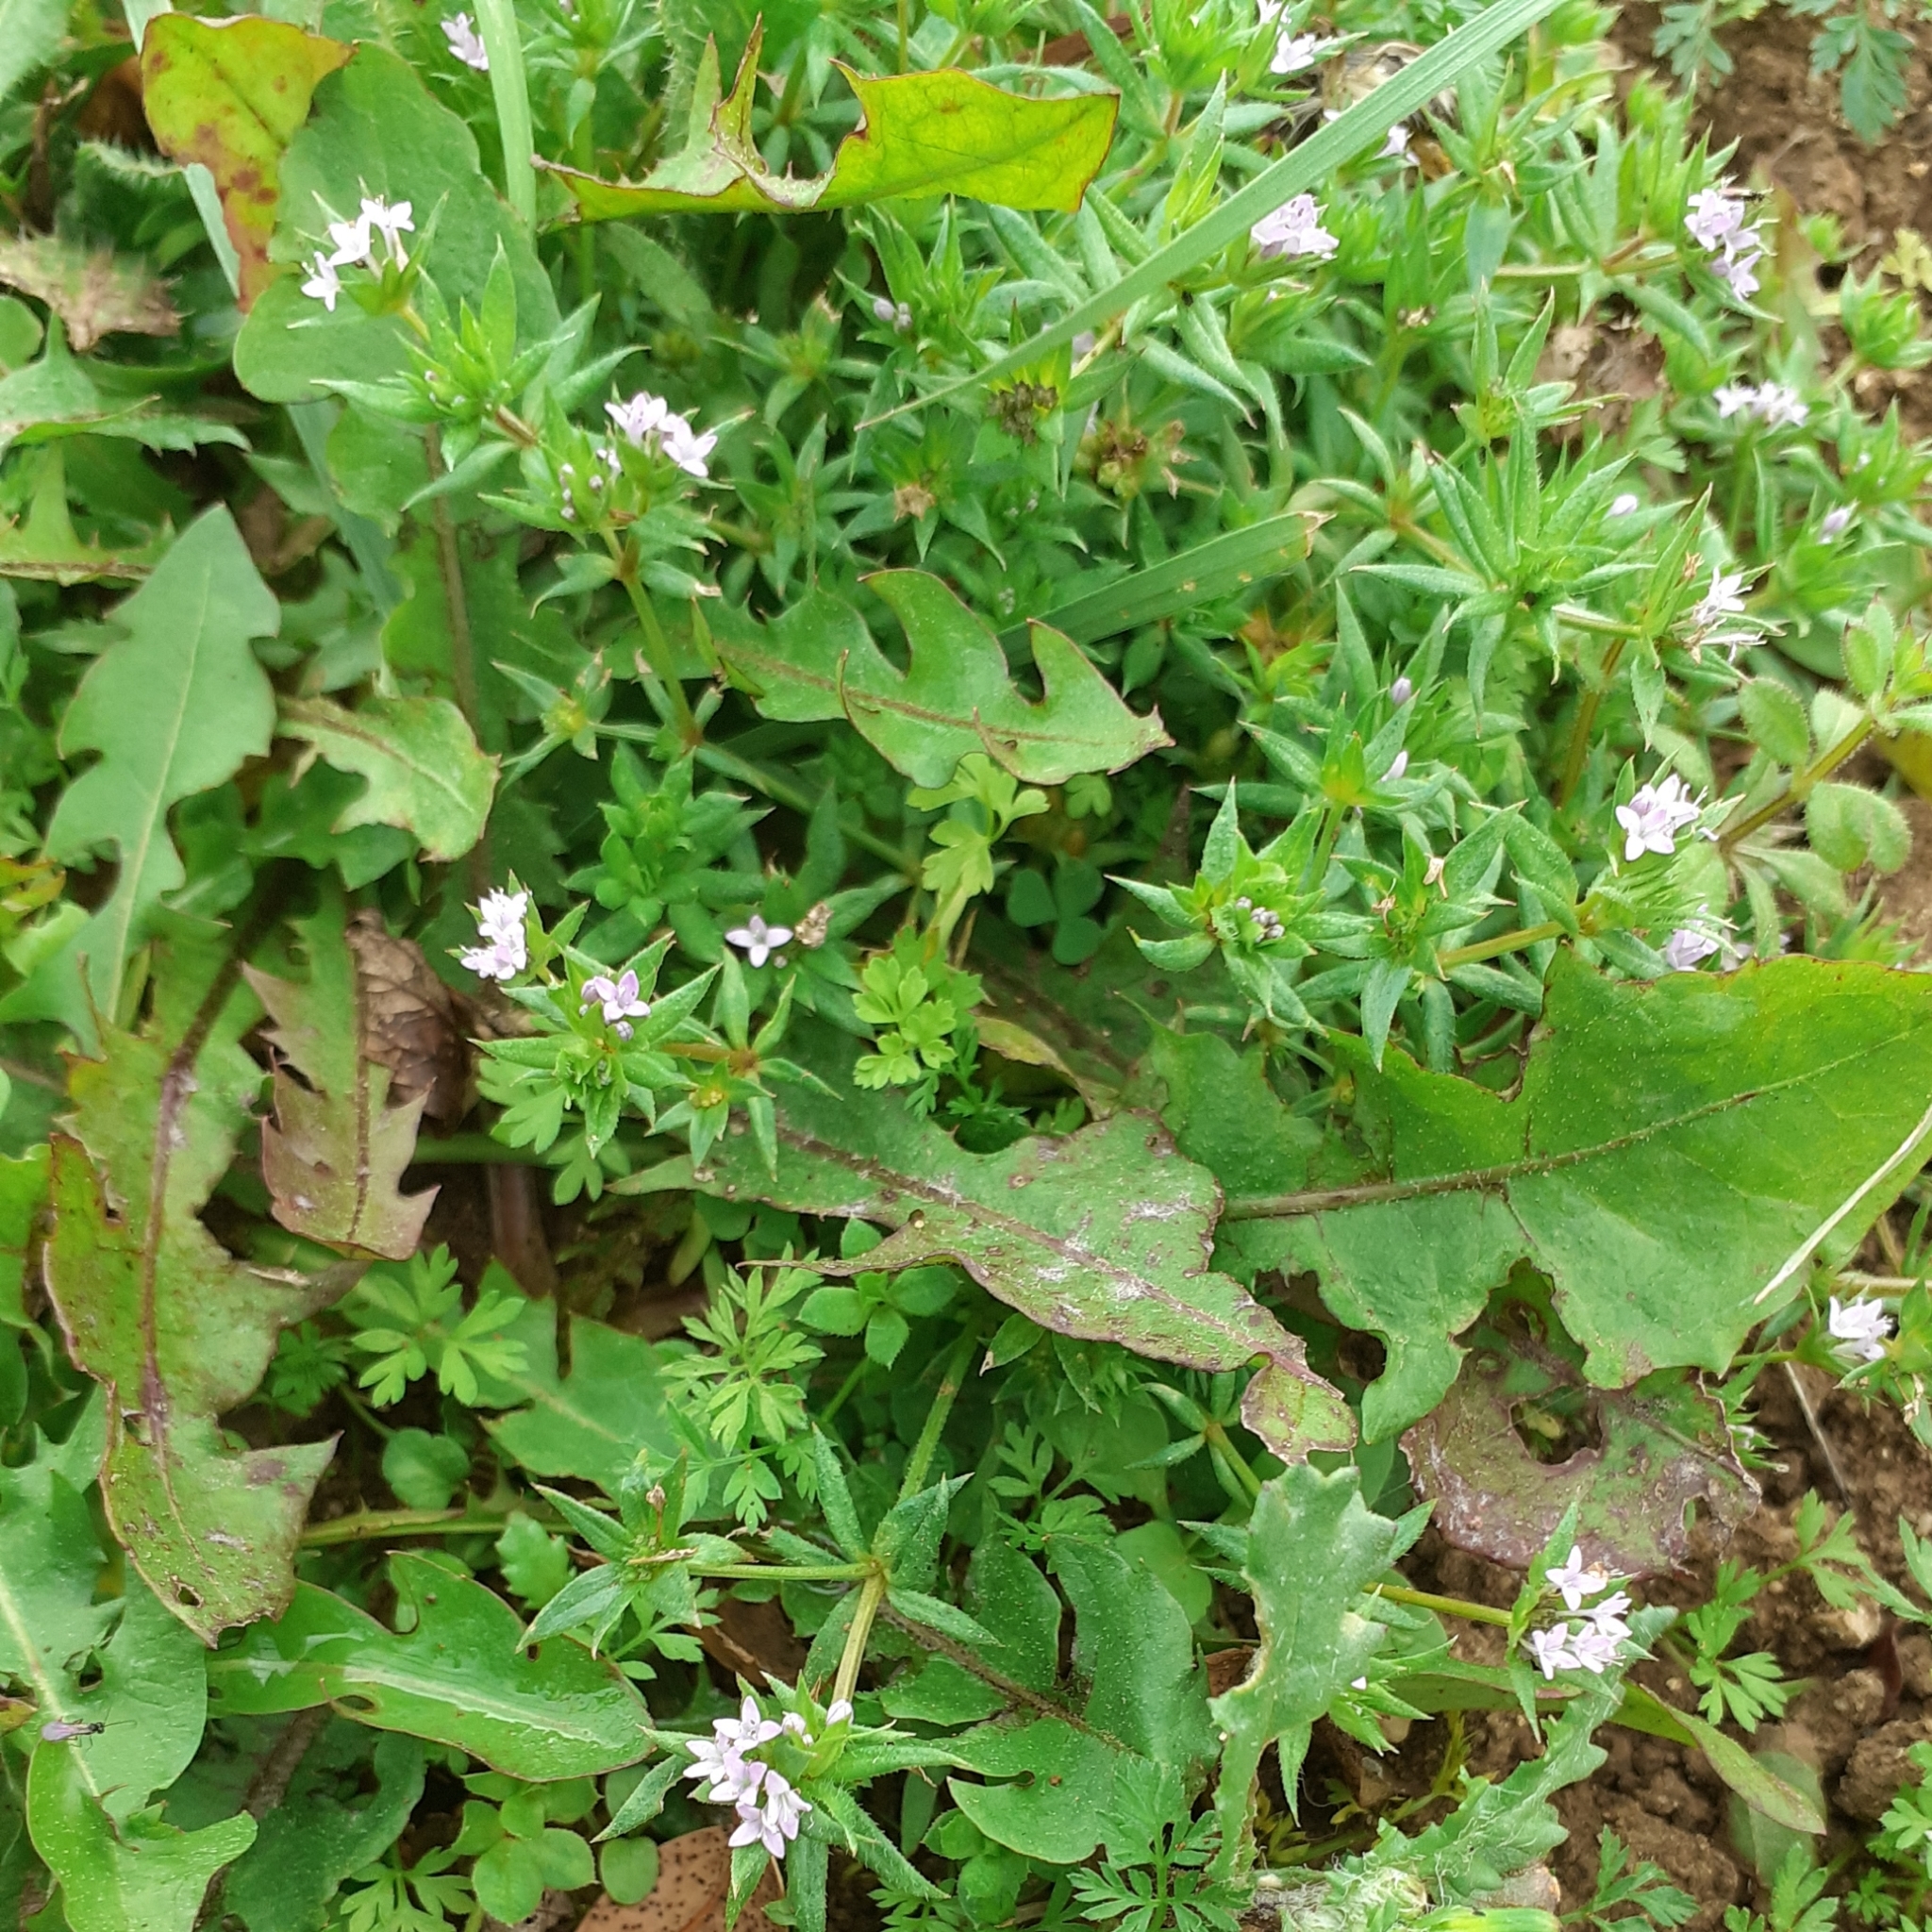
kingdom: Plantae
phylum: Tracheophyta
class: Magnoliopsida
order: Gentianales
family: Rubiaceae
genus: Sherardia
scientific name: Sherardia arvensis
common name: Field madder
